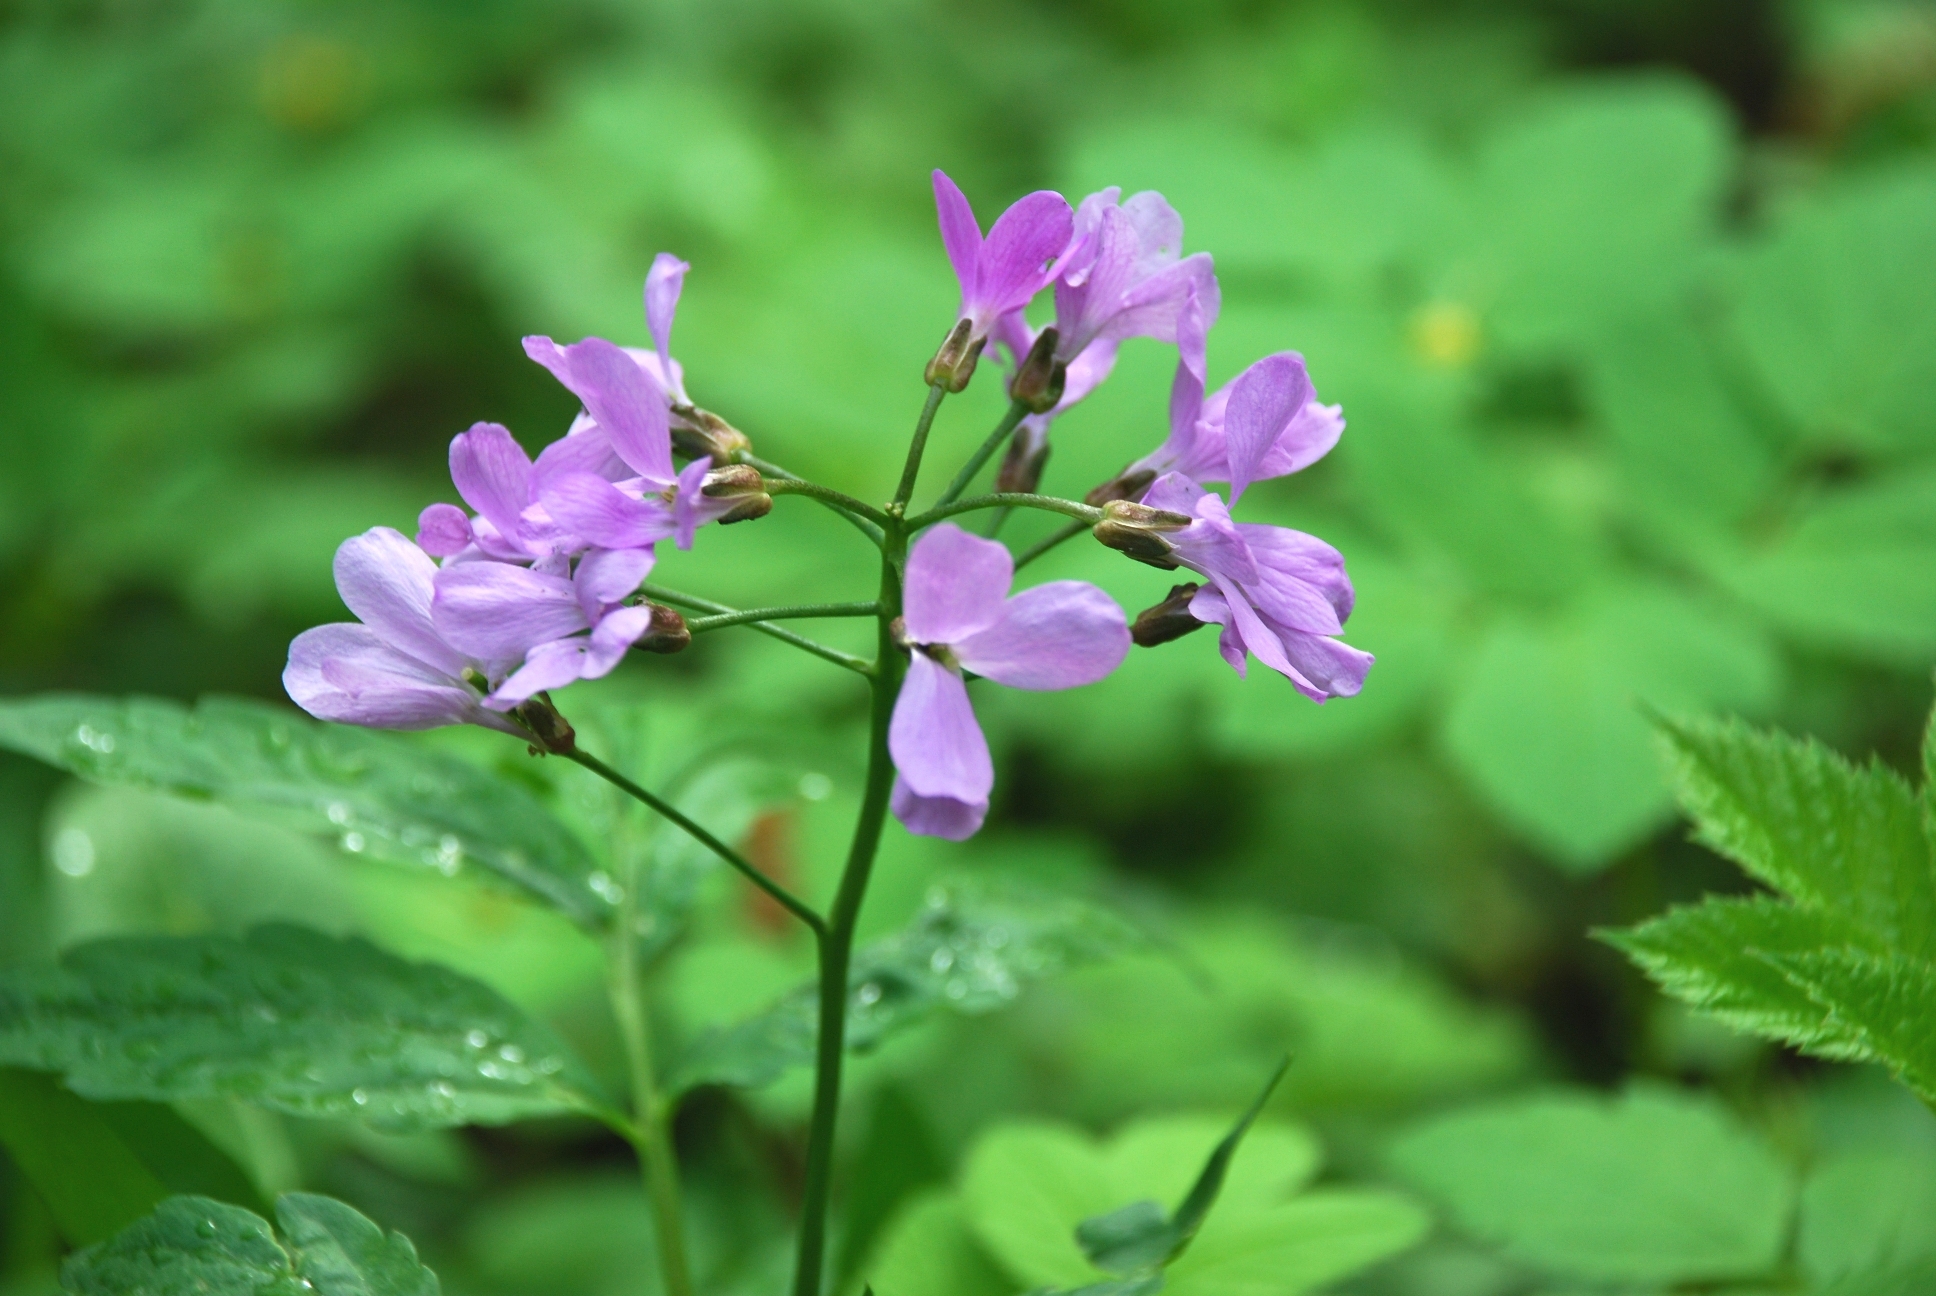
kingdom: Plantae
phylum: Tracheophyta
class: Magnoliopsida
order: Brassicales
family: Brassicaceae
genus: Cardamine
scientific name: Cardamine quinquefolia
